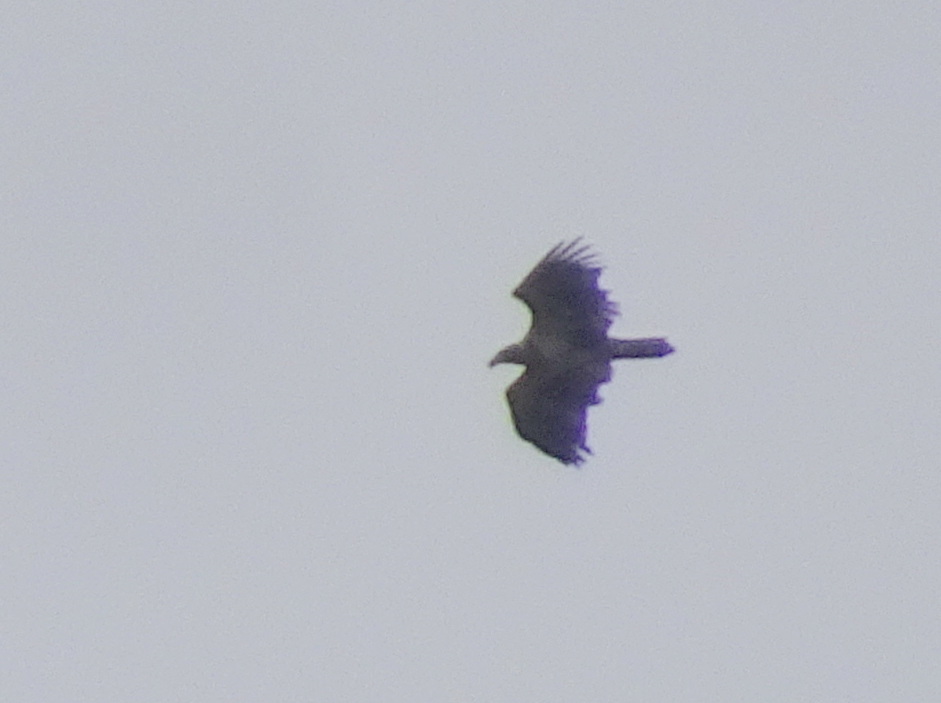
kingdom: Animalia
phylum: Chordata
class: Aves
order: Accipitriformes
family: Accipitridae
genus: Haliaeetus
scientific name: Haliaeetus leucocephalus
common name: Bald eagle
